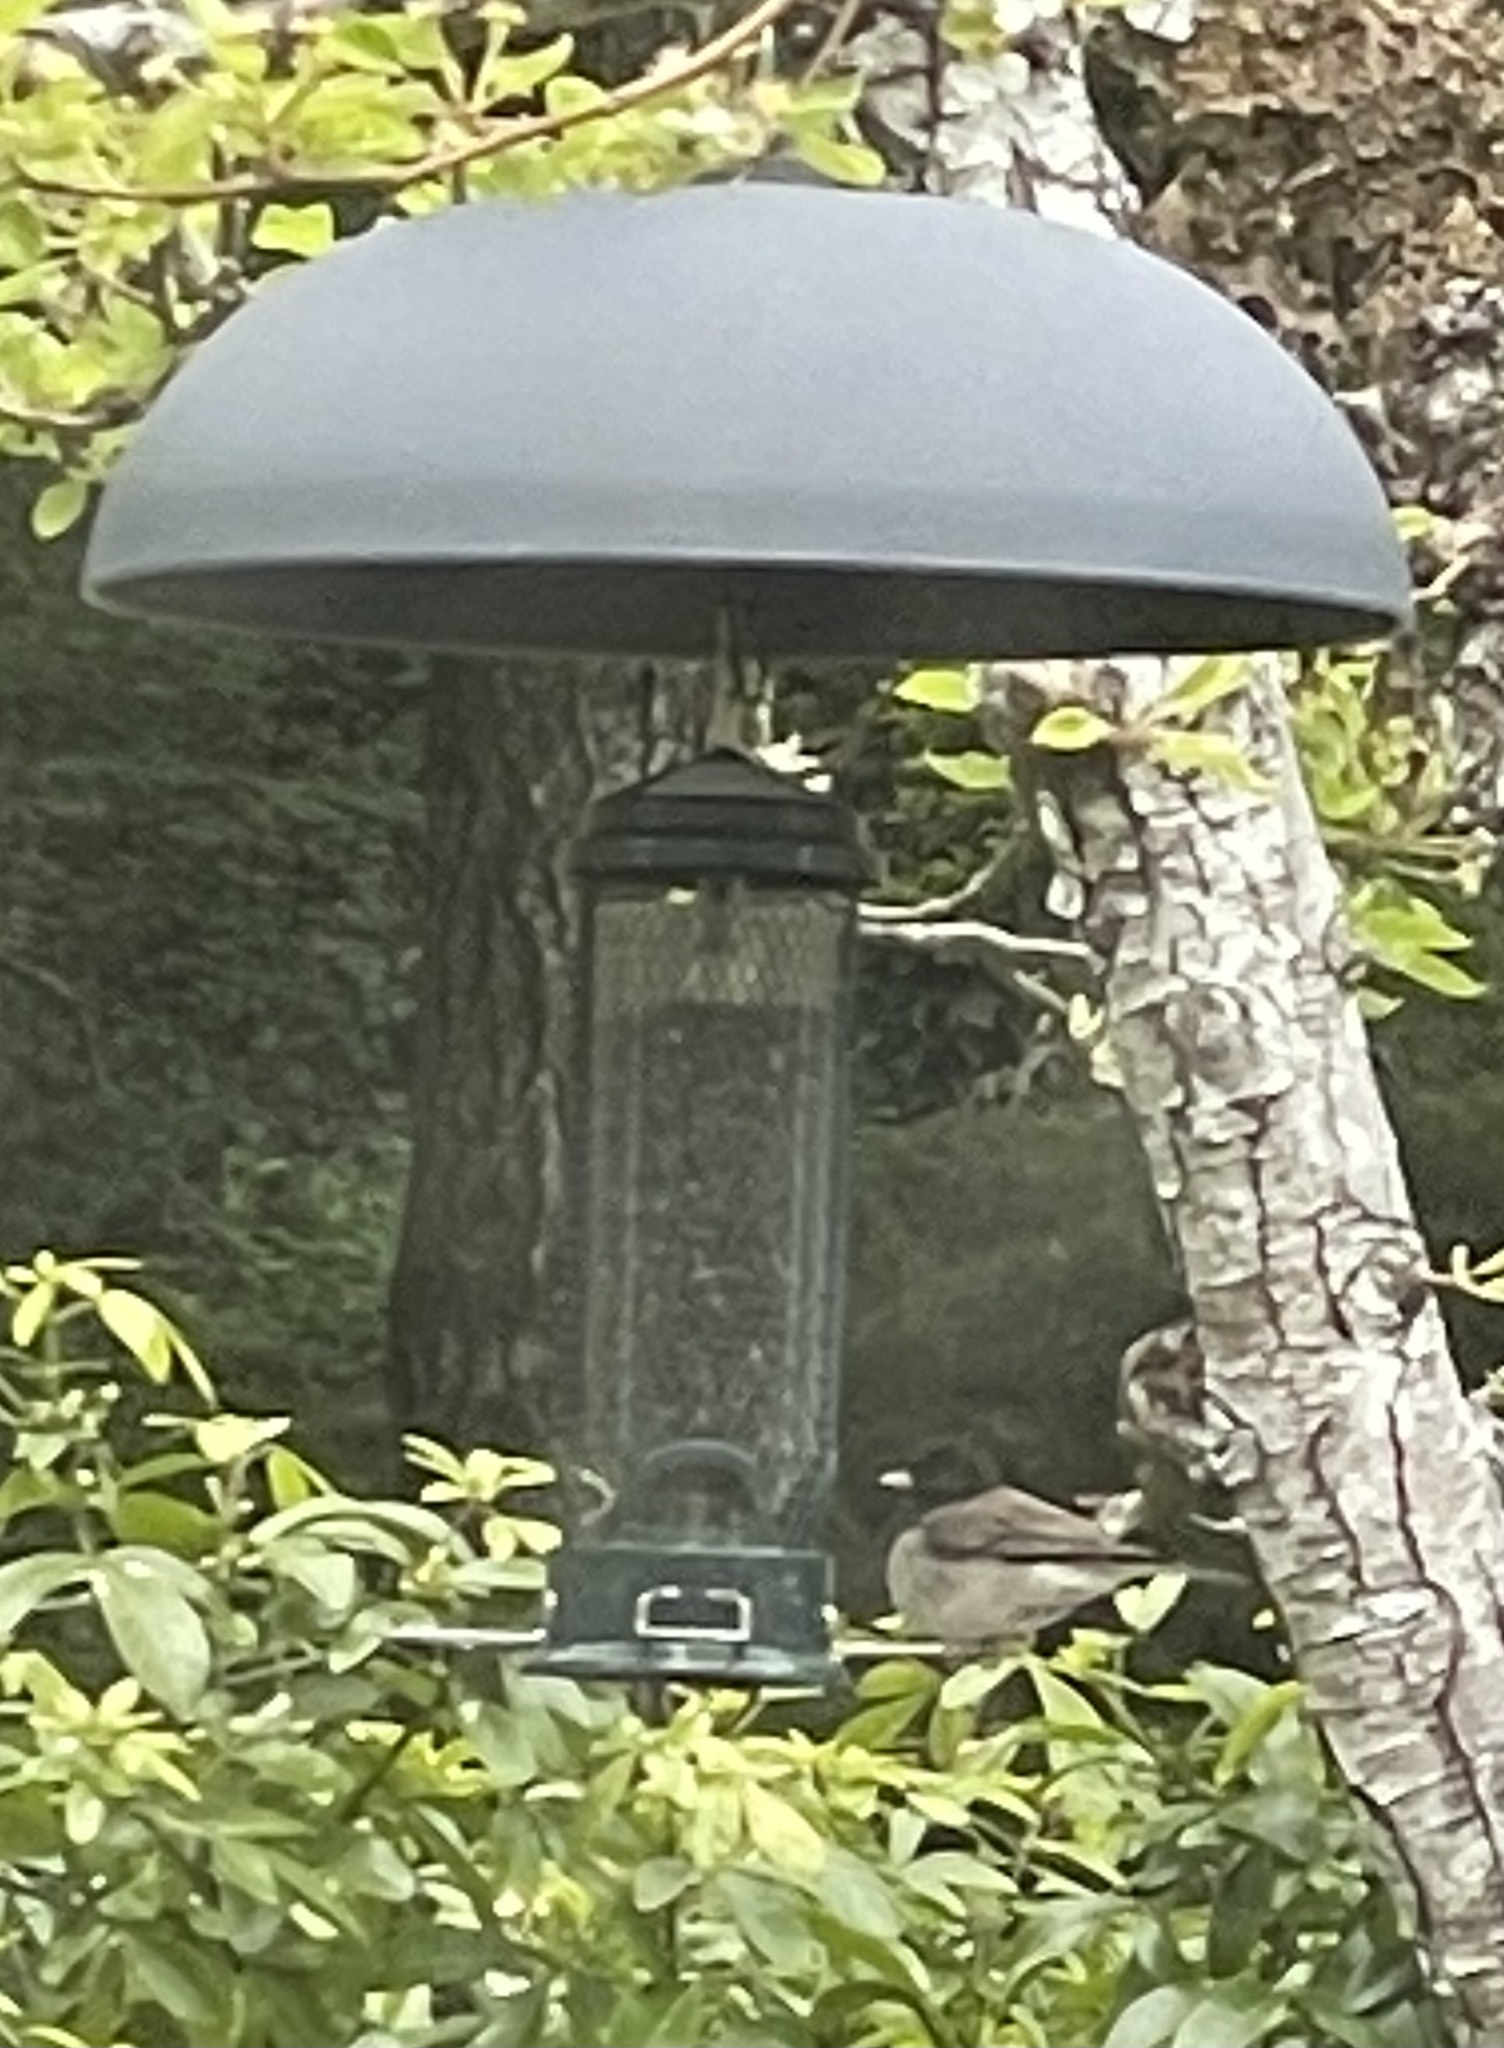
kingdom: Animalia
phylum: Chordata
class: Aves
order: Passeriformes
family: Passerellidae
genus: Junco
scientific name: Junco hyemalis
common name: Dark-eyed junco
